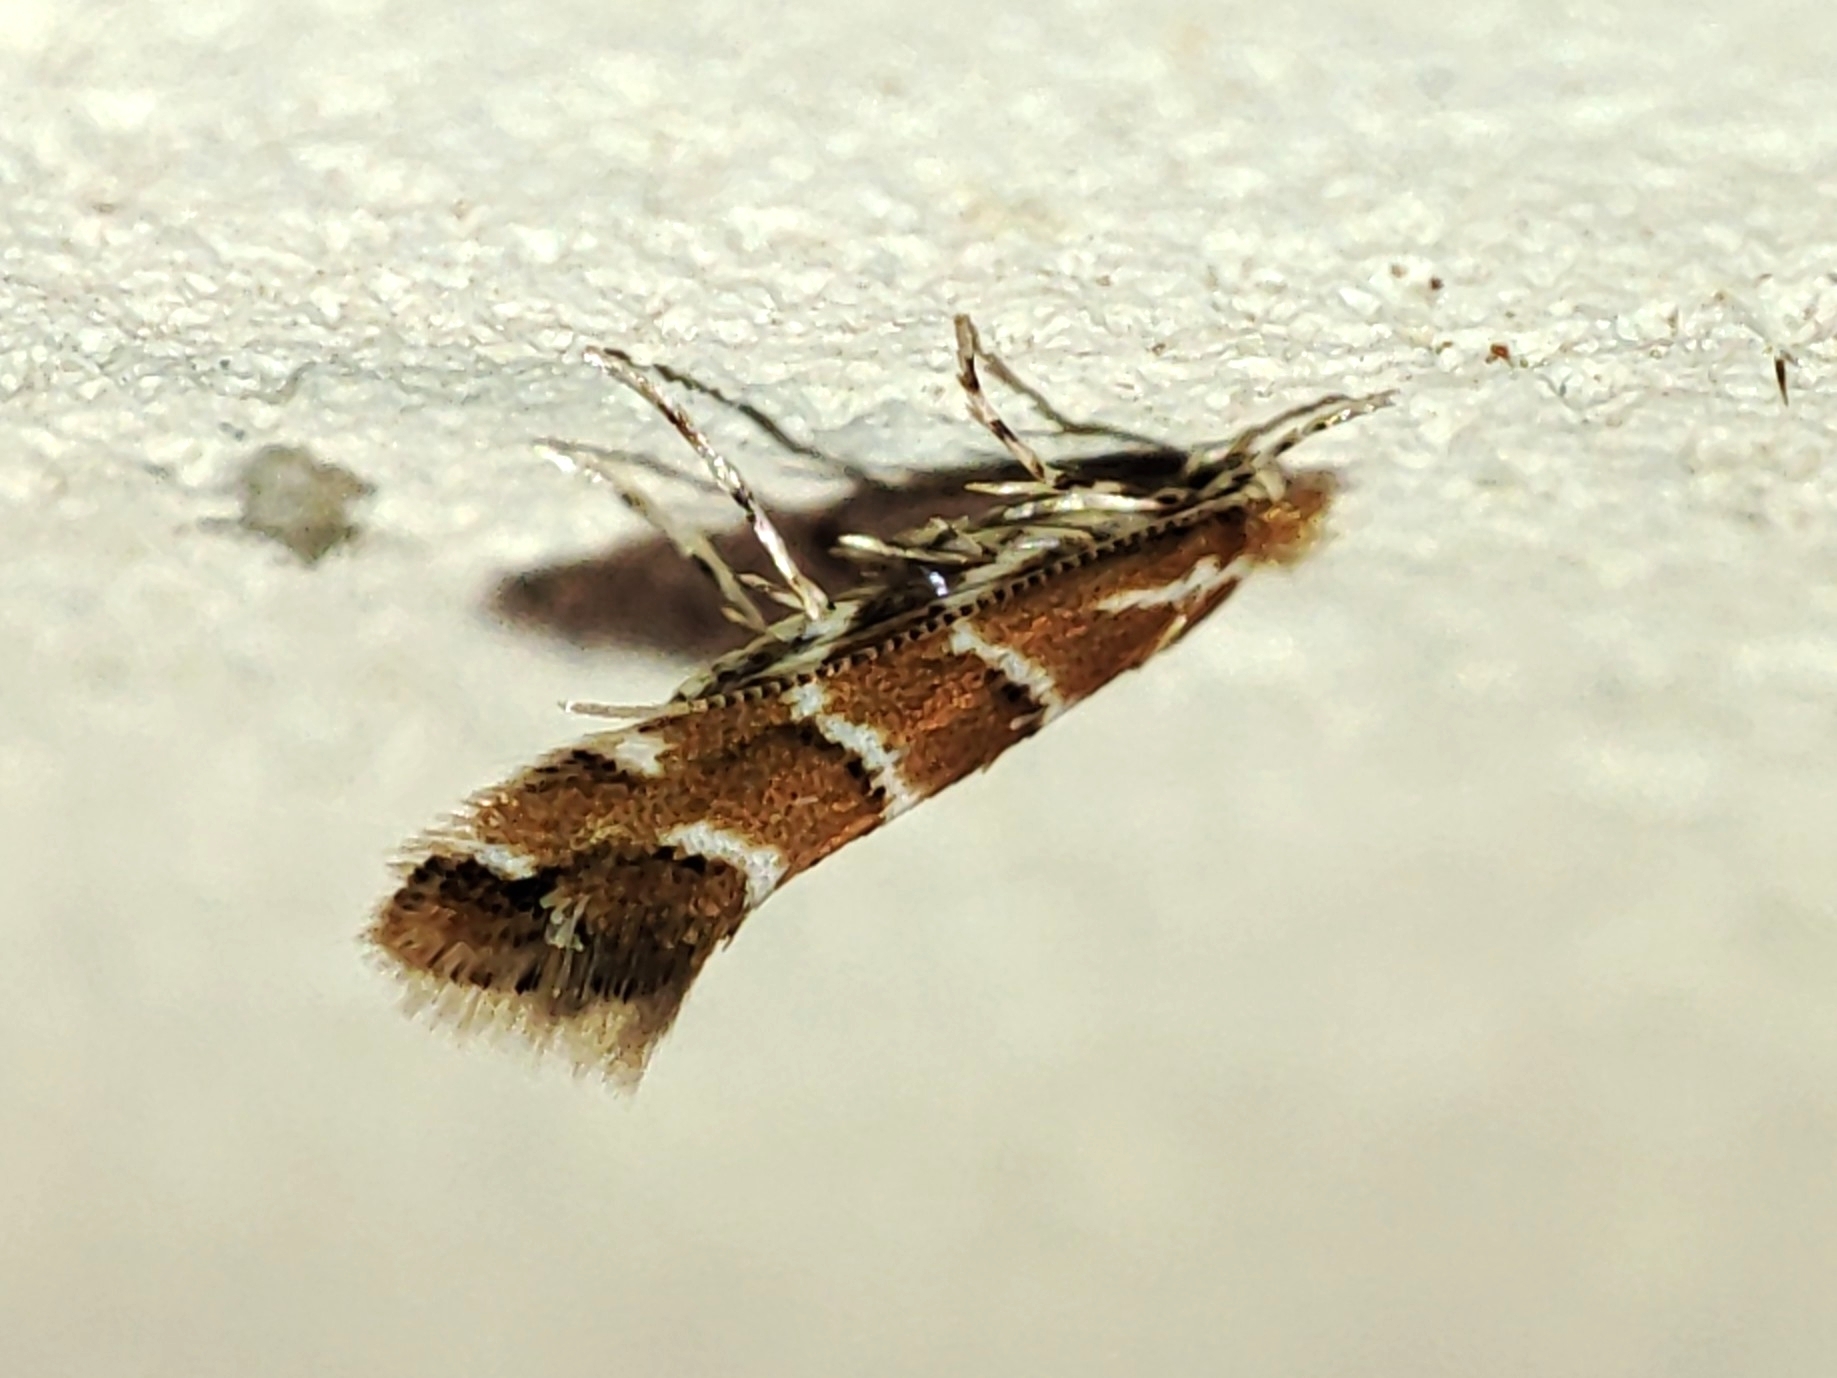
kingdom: Animalia
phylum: Arthropoda
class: Insecta
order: Lepidoptera
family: Gracillariidae
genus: Cameraria
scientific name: Cameraria ohridella
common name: Horse-chestnut leaf-miner
